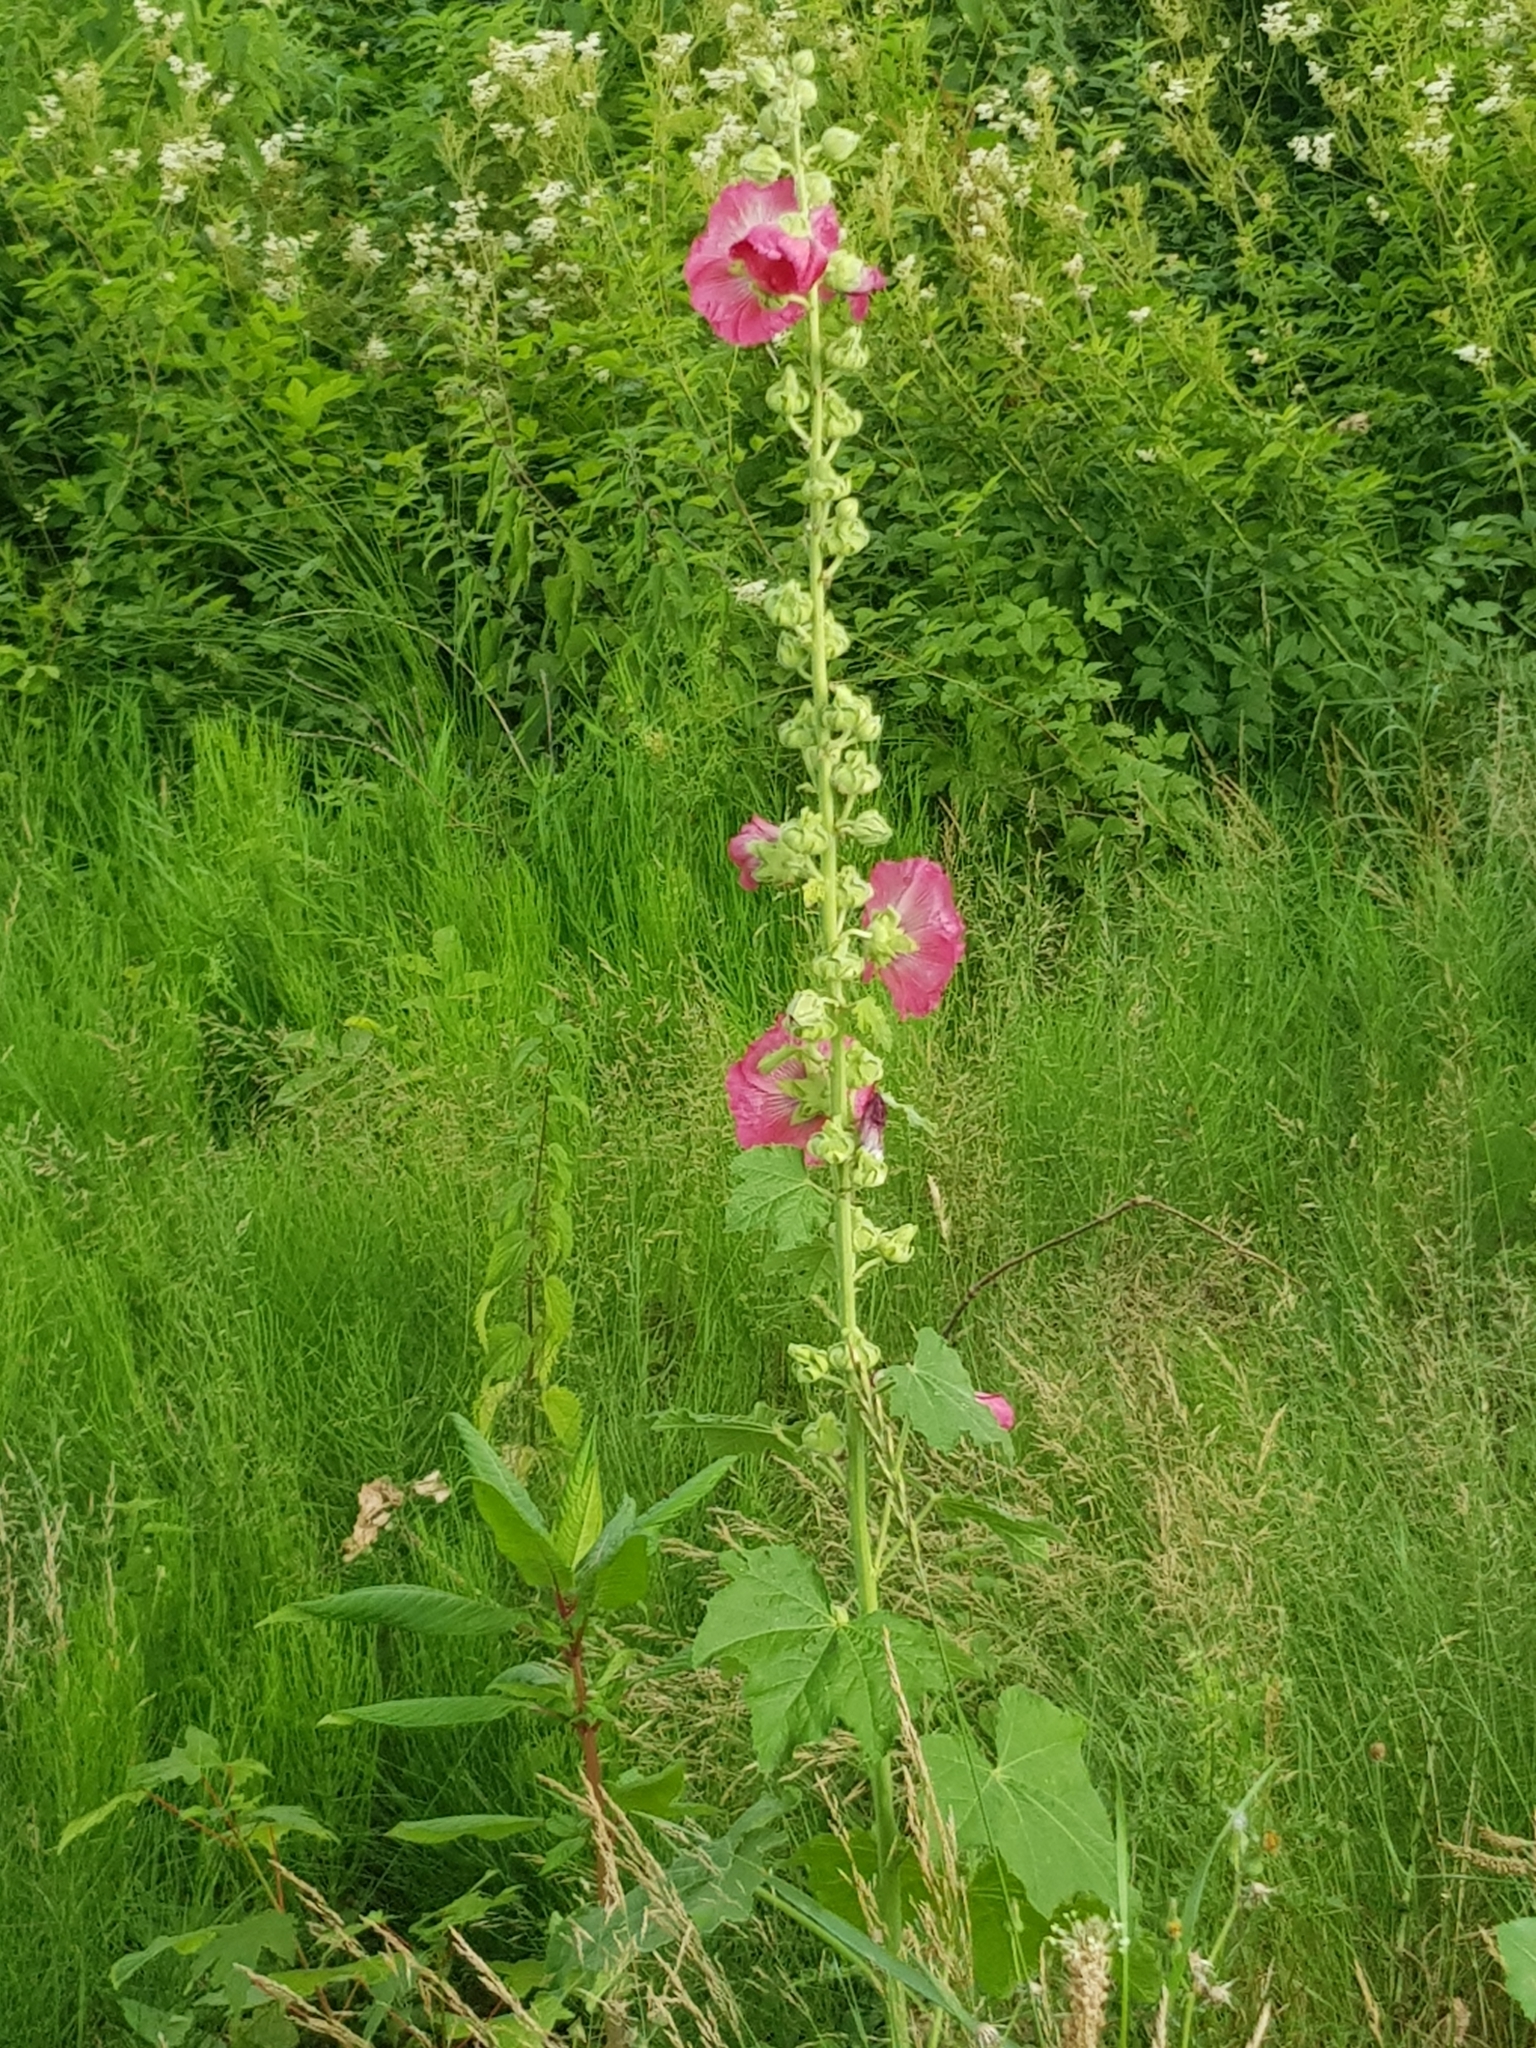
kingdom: Plantae
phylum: Tracheophyta
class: Magnoliopsida
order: Malvales
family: Malvaceae
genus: Alcea
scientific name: Alcea rosea
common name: Hollyhock
